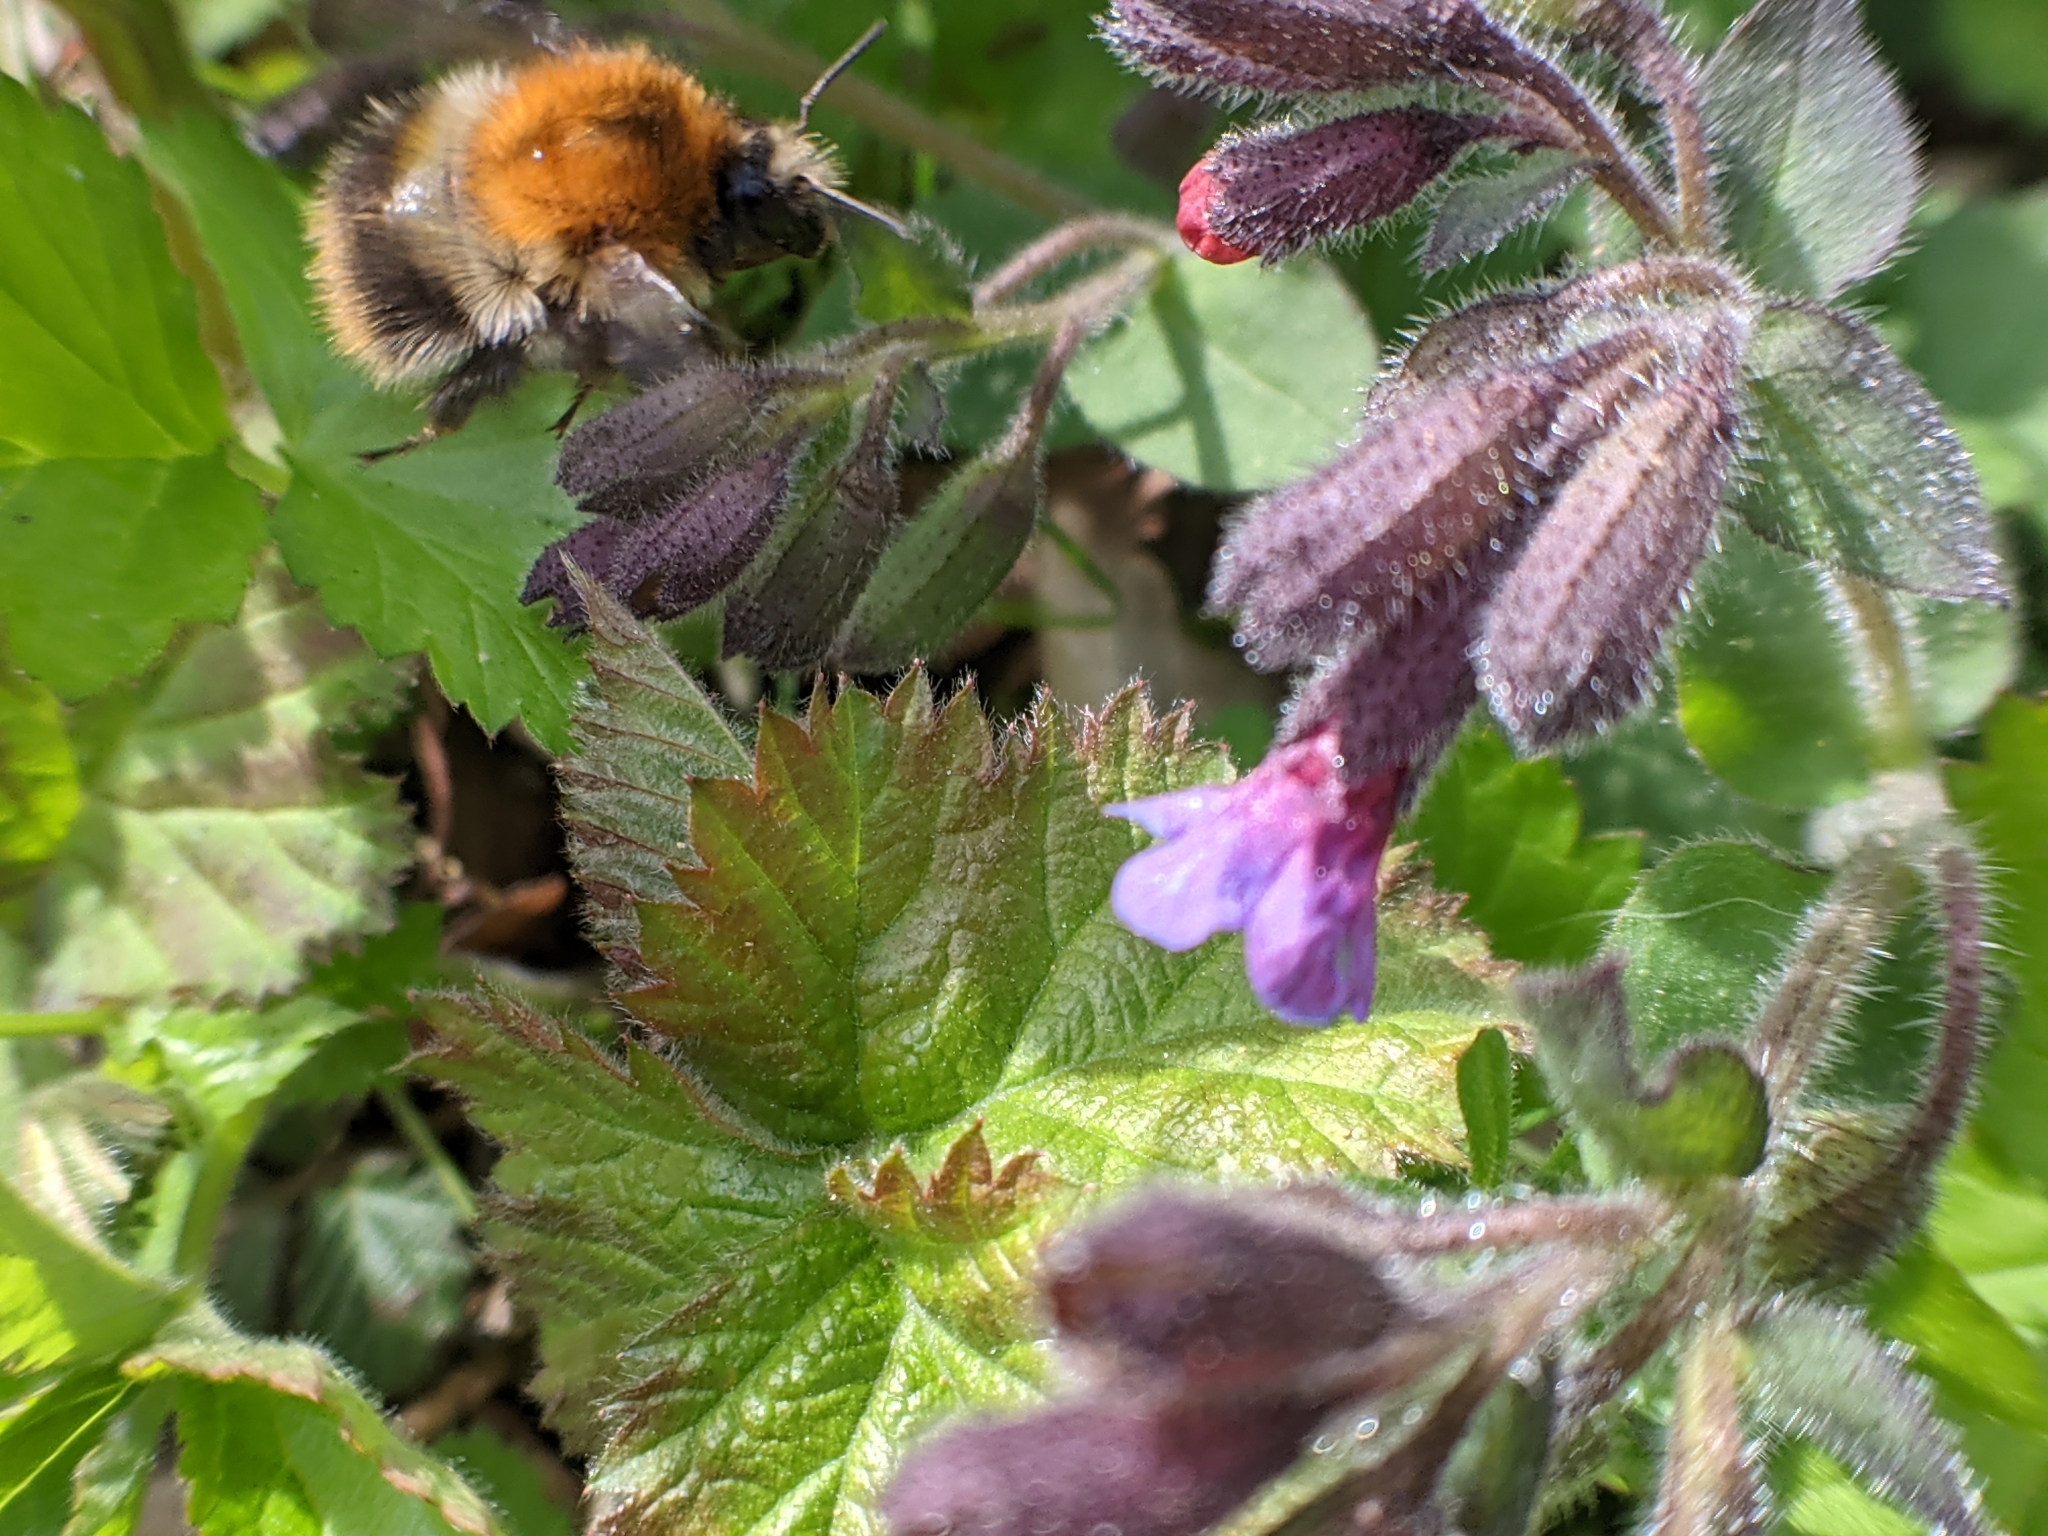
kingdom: Animalia
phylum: Arthropoda
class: Insecta
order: Hymenoptera
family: Apidae
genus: Bombus
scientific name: Bombus pascuorum
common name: Common carder bee
